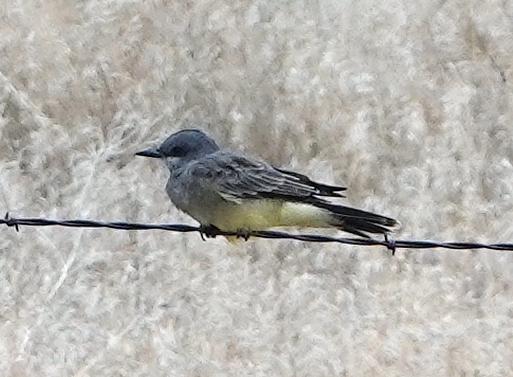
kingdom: Animalia
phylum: Chordata
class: Aves
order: Passeriformes
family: Tyrannidae
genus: Tyrannus
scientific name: Tyrannus vociferans
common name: Cassin's kingbird
